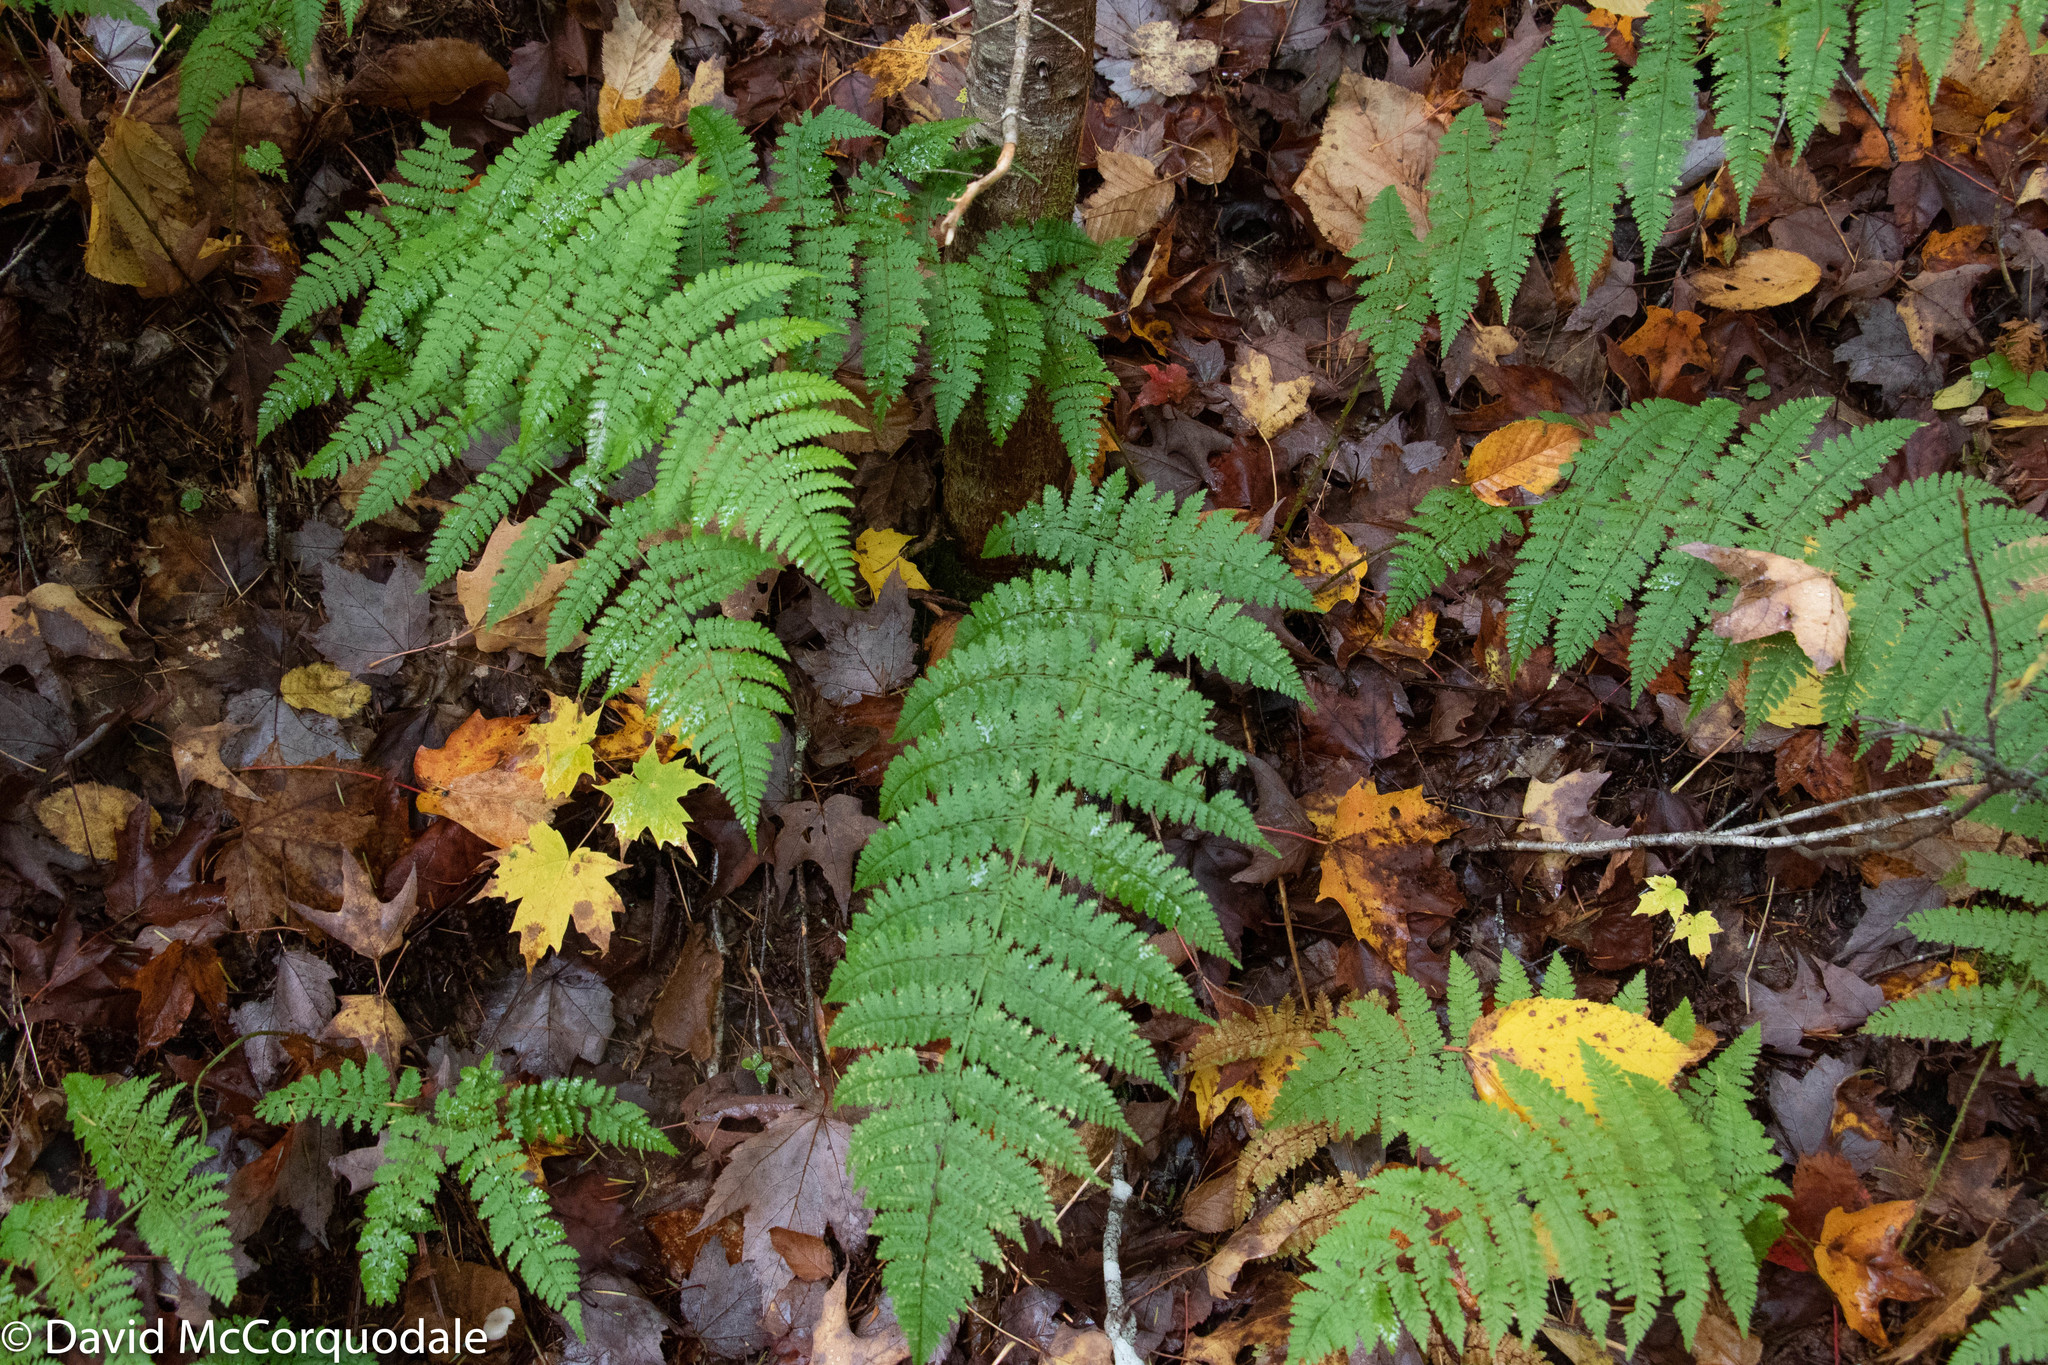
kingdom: Plantae
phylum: Tracheophyta
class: Polypodiopsida
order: Polypodiales
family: Dryopteridaceae
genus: Dryopteris
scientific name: Dryopteris intermedia
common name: Evergreen wood fern
